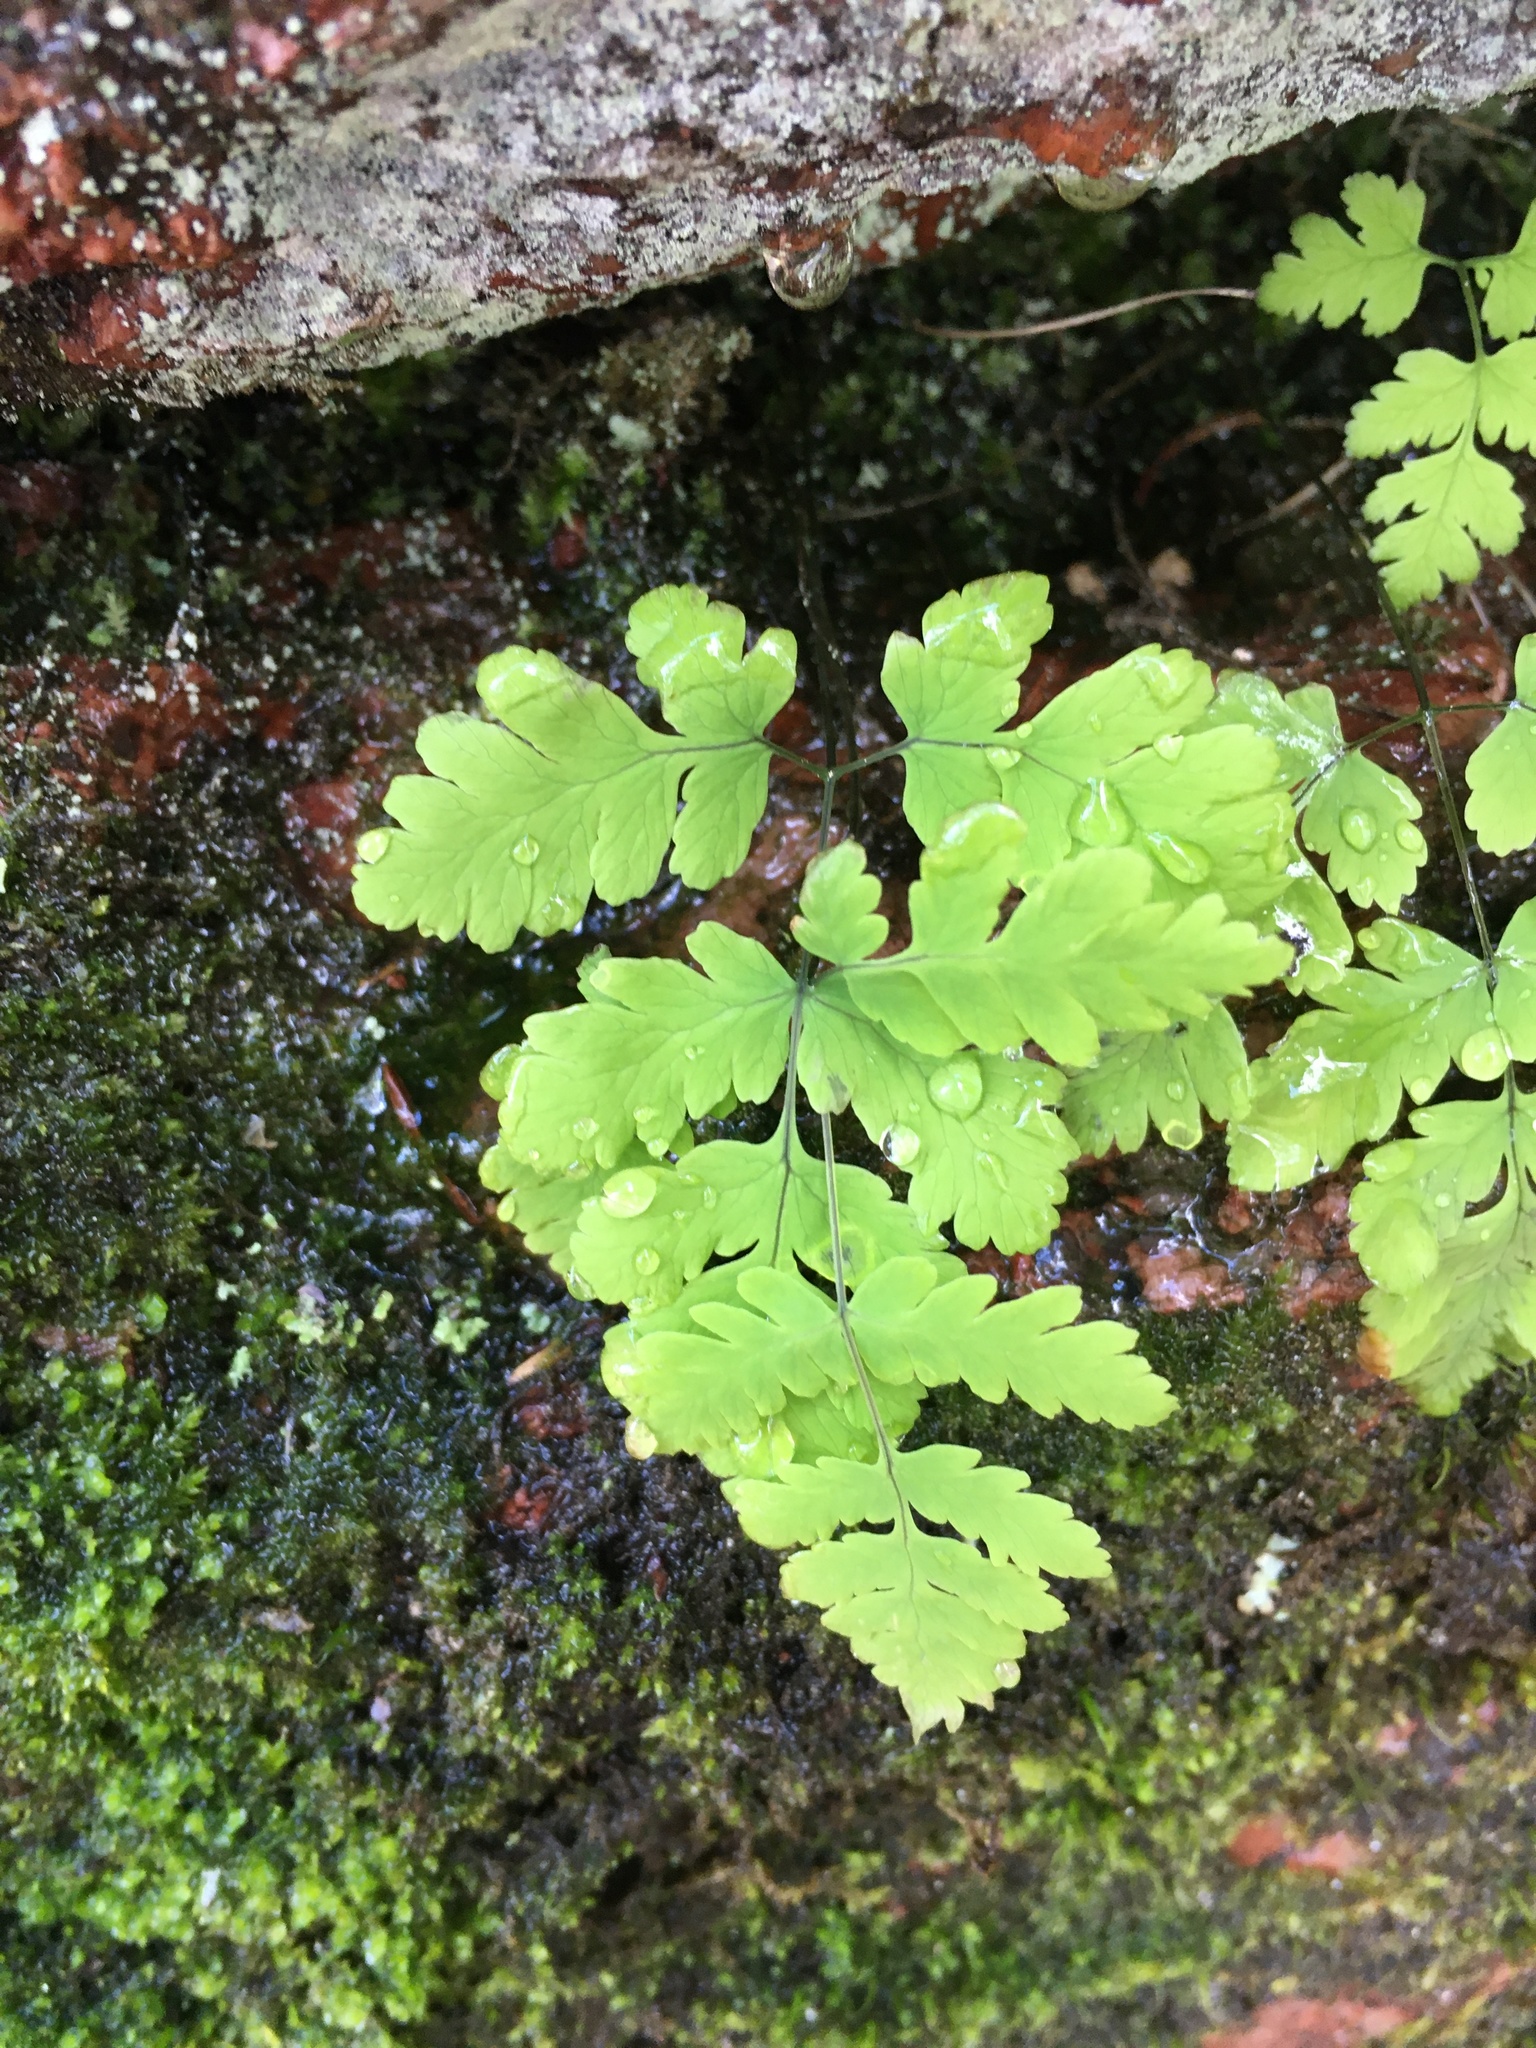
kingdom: Plantae
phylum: Tracheophyta
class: Polypodiopsida
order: Polypodiales
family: Cystopteridaceae
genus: Gymnocarpium
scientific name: Gymnocarpium dryopteris
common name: Oak fern
